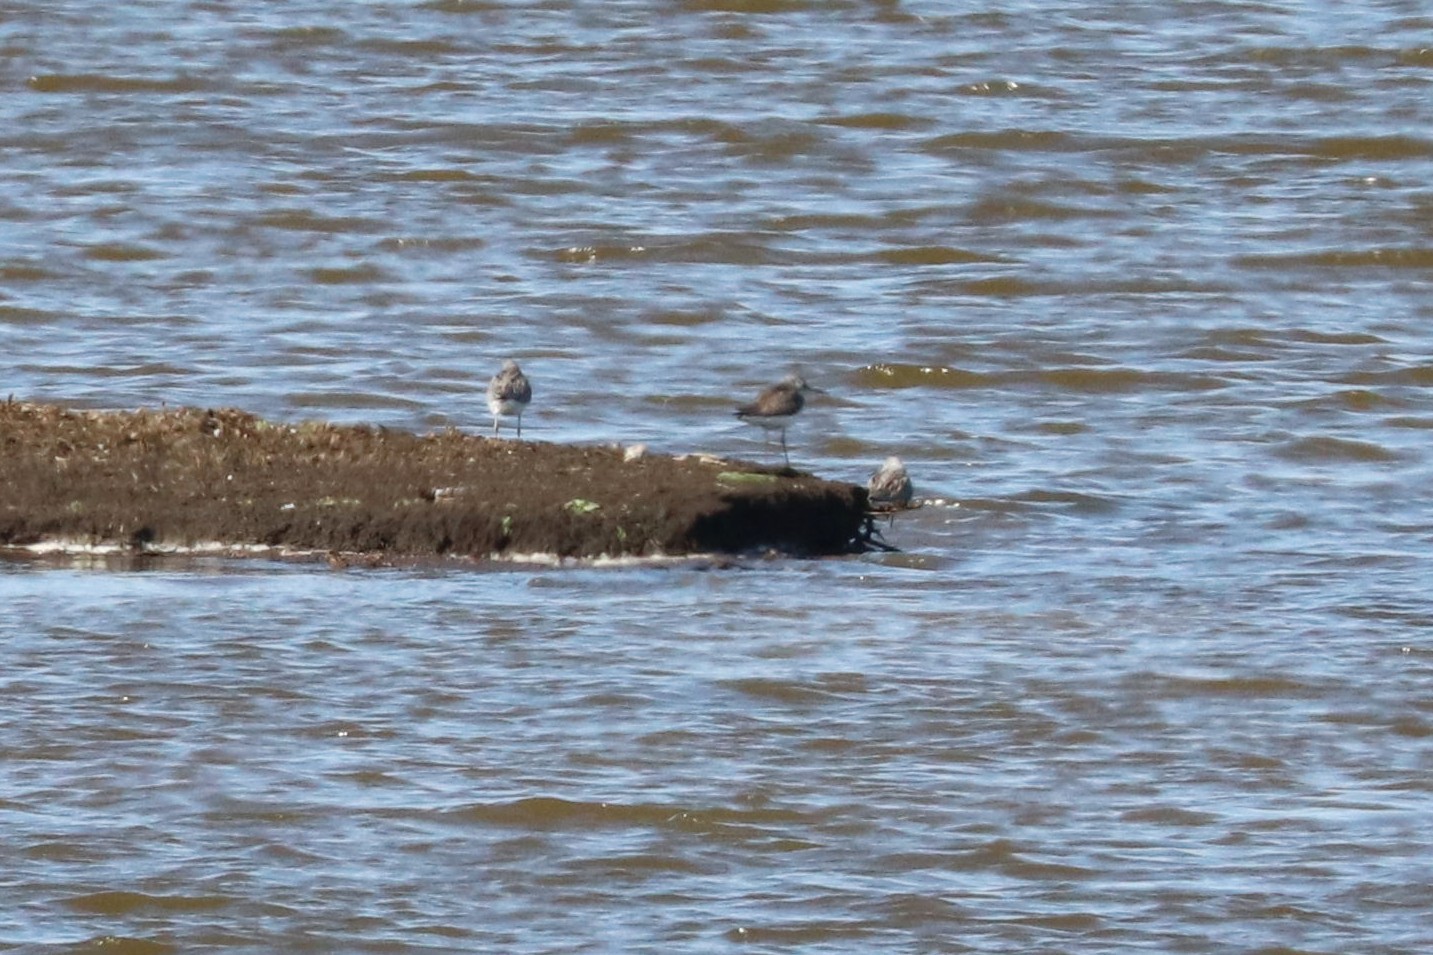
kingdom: Animalia
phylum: Chordata
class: Aves
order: Charadriiformes
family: Scolopacidae
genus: Tringa
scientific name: Tringa nebularia
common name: Common greenshank
